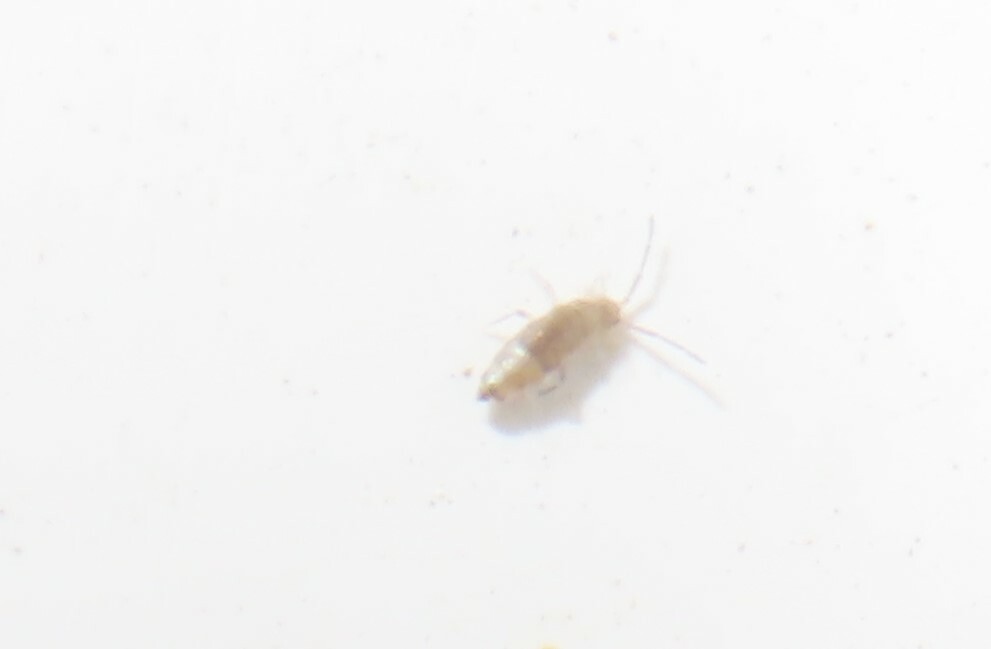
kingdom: Animalia
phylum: Arthropoda
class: Collembola
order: Entomobryomorpha
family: Entomobryidae
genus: Willowsia
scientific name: Willowsia nigromaculata
